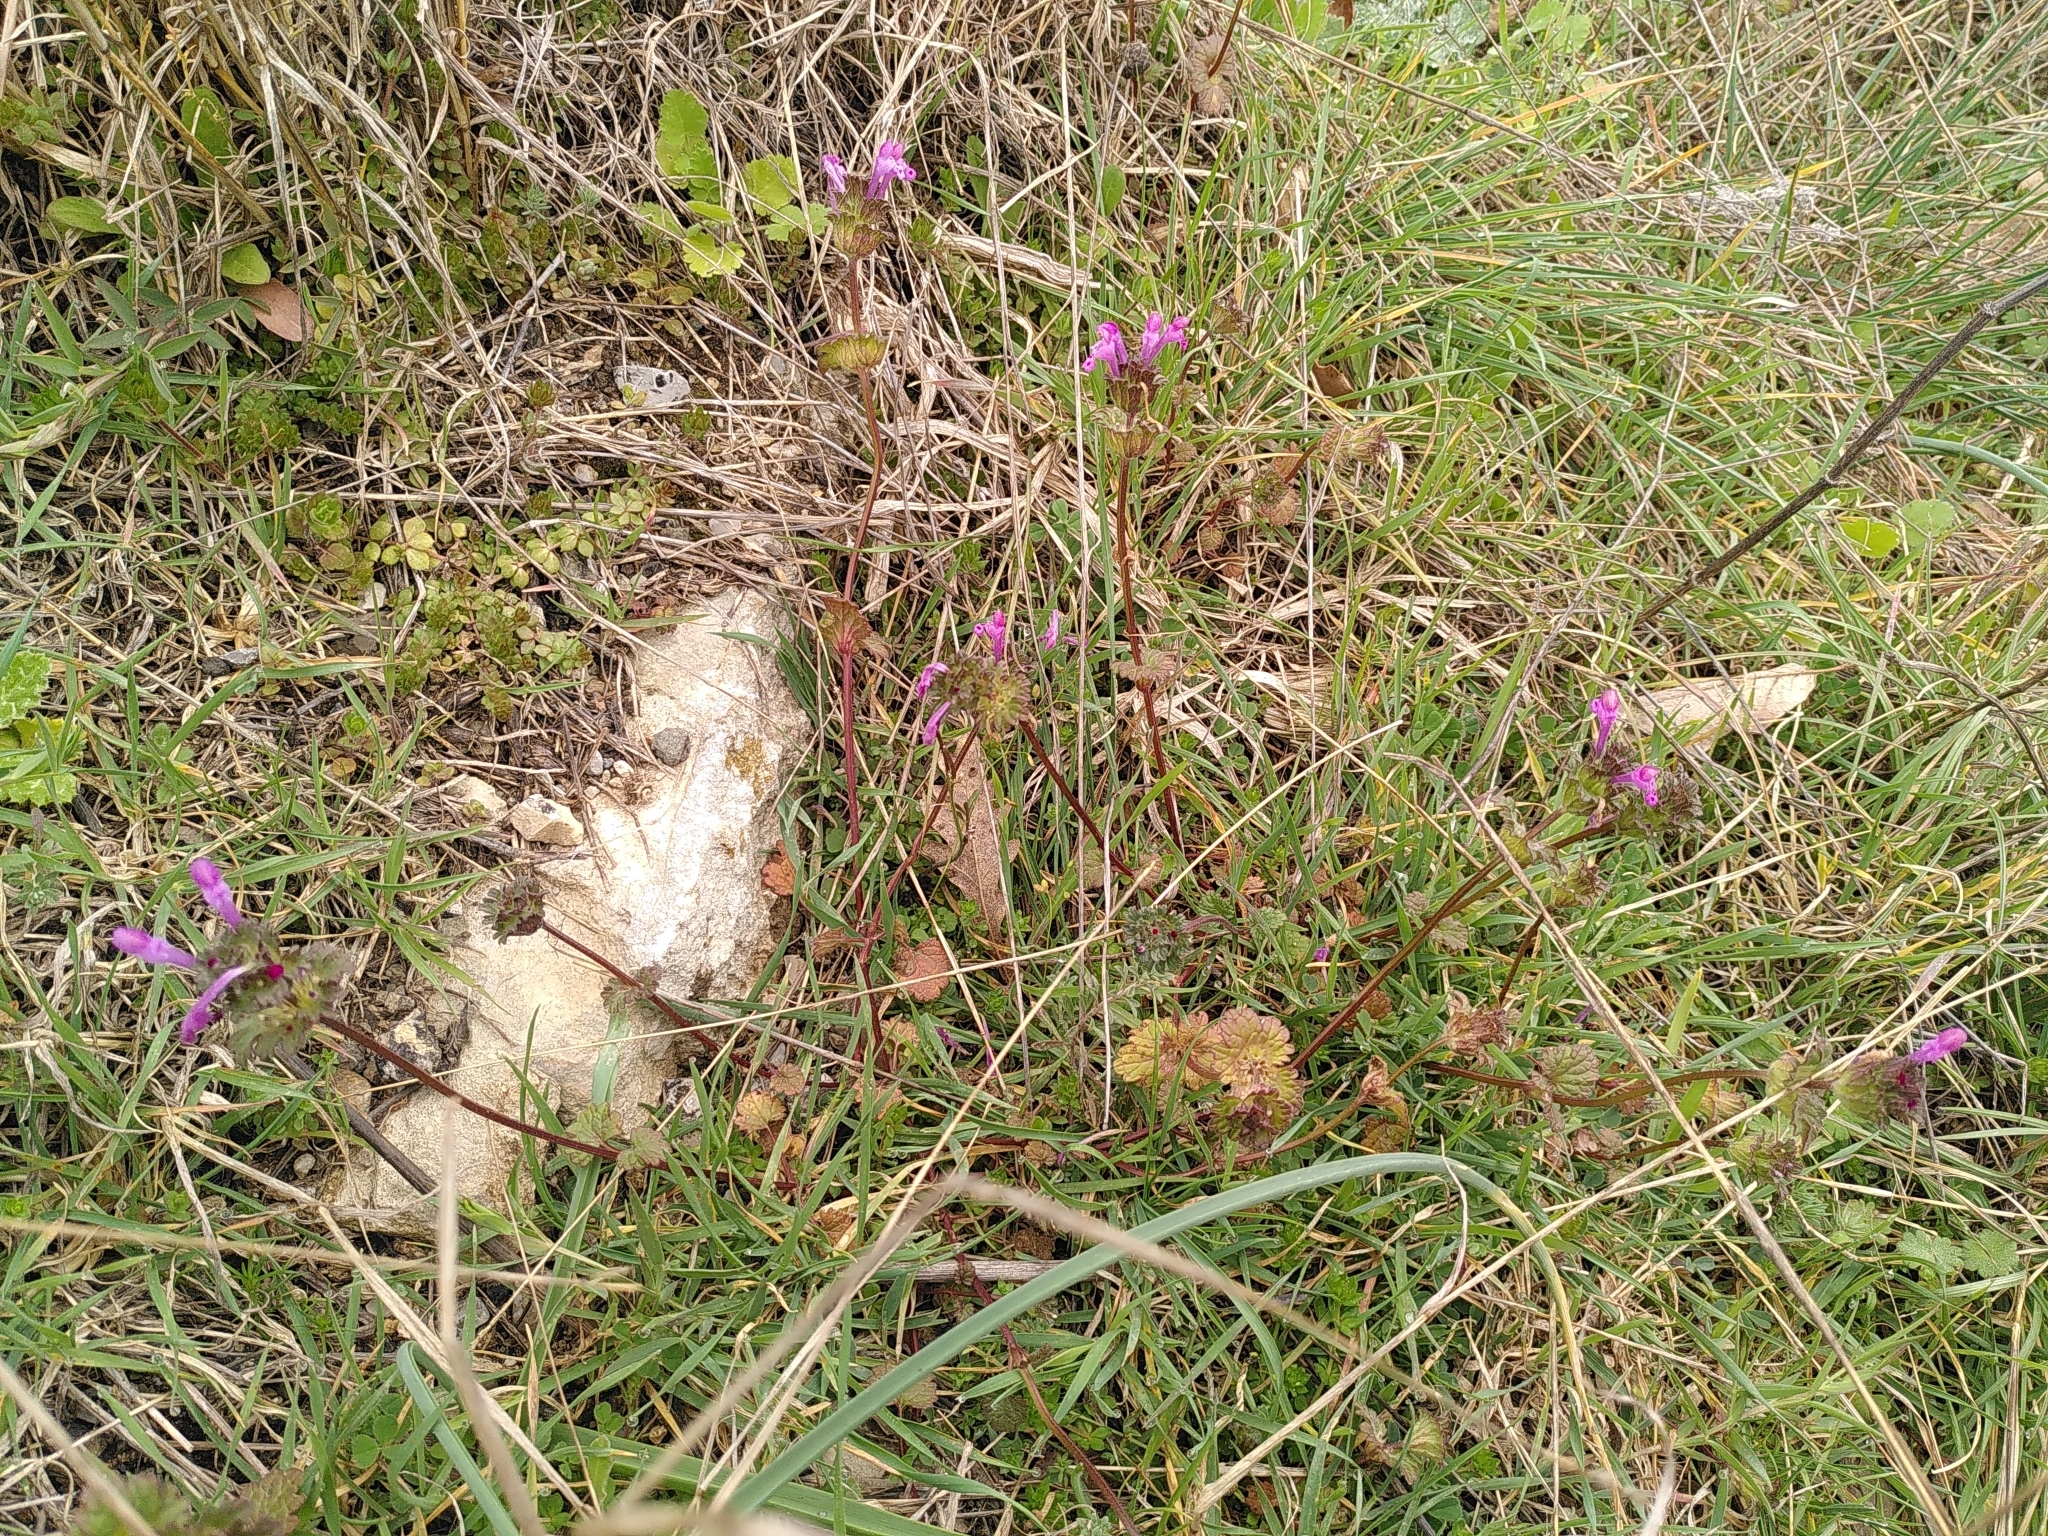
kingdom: Plantae
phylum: Tracheophyta
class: Magnoliopsida
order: Lamiales
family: Lamiaceae
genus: Lamium
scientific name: Lamium amplexicaule
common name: Henbit dead-nettle
